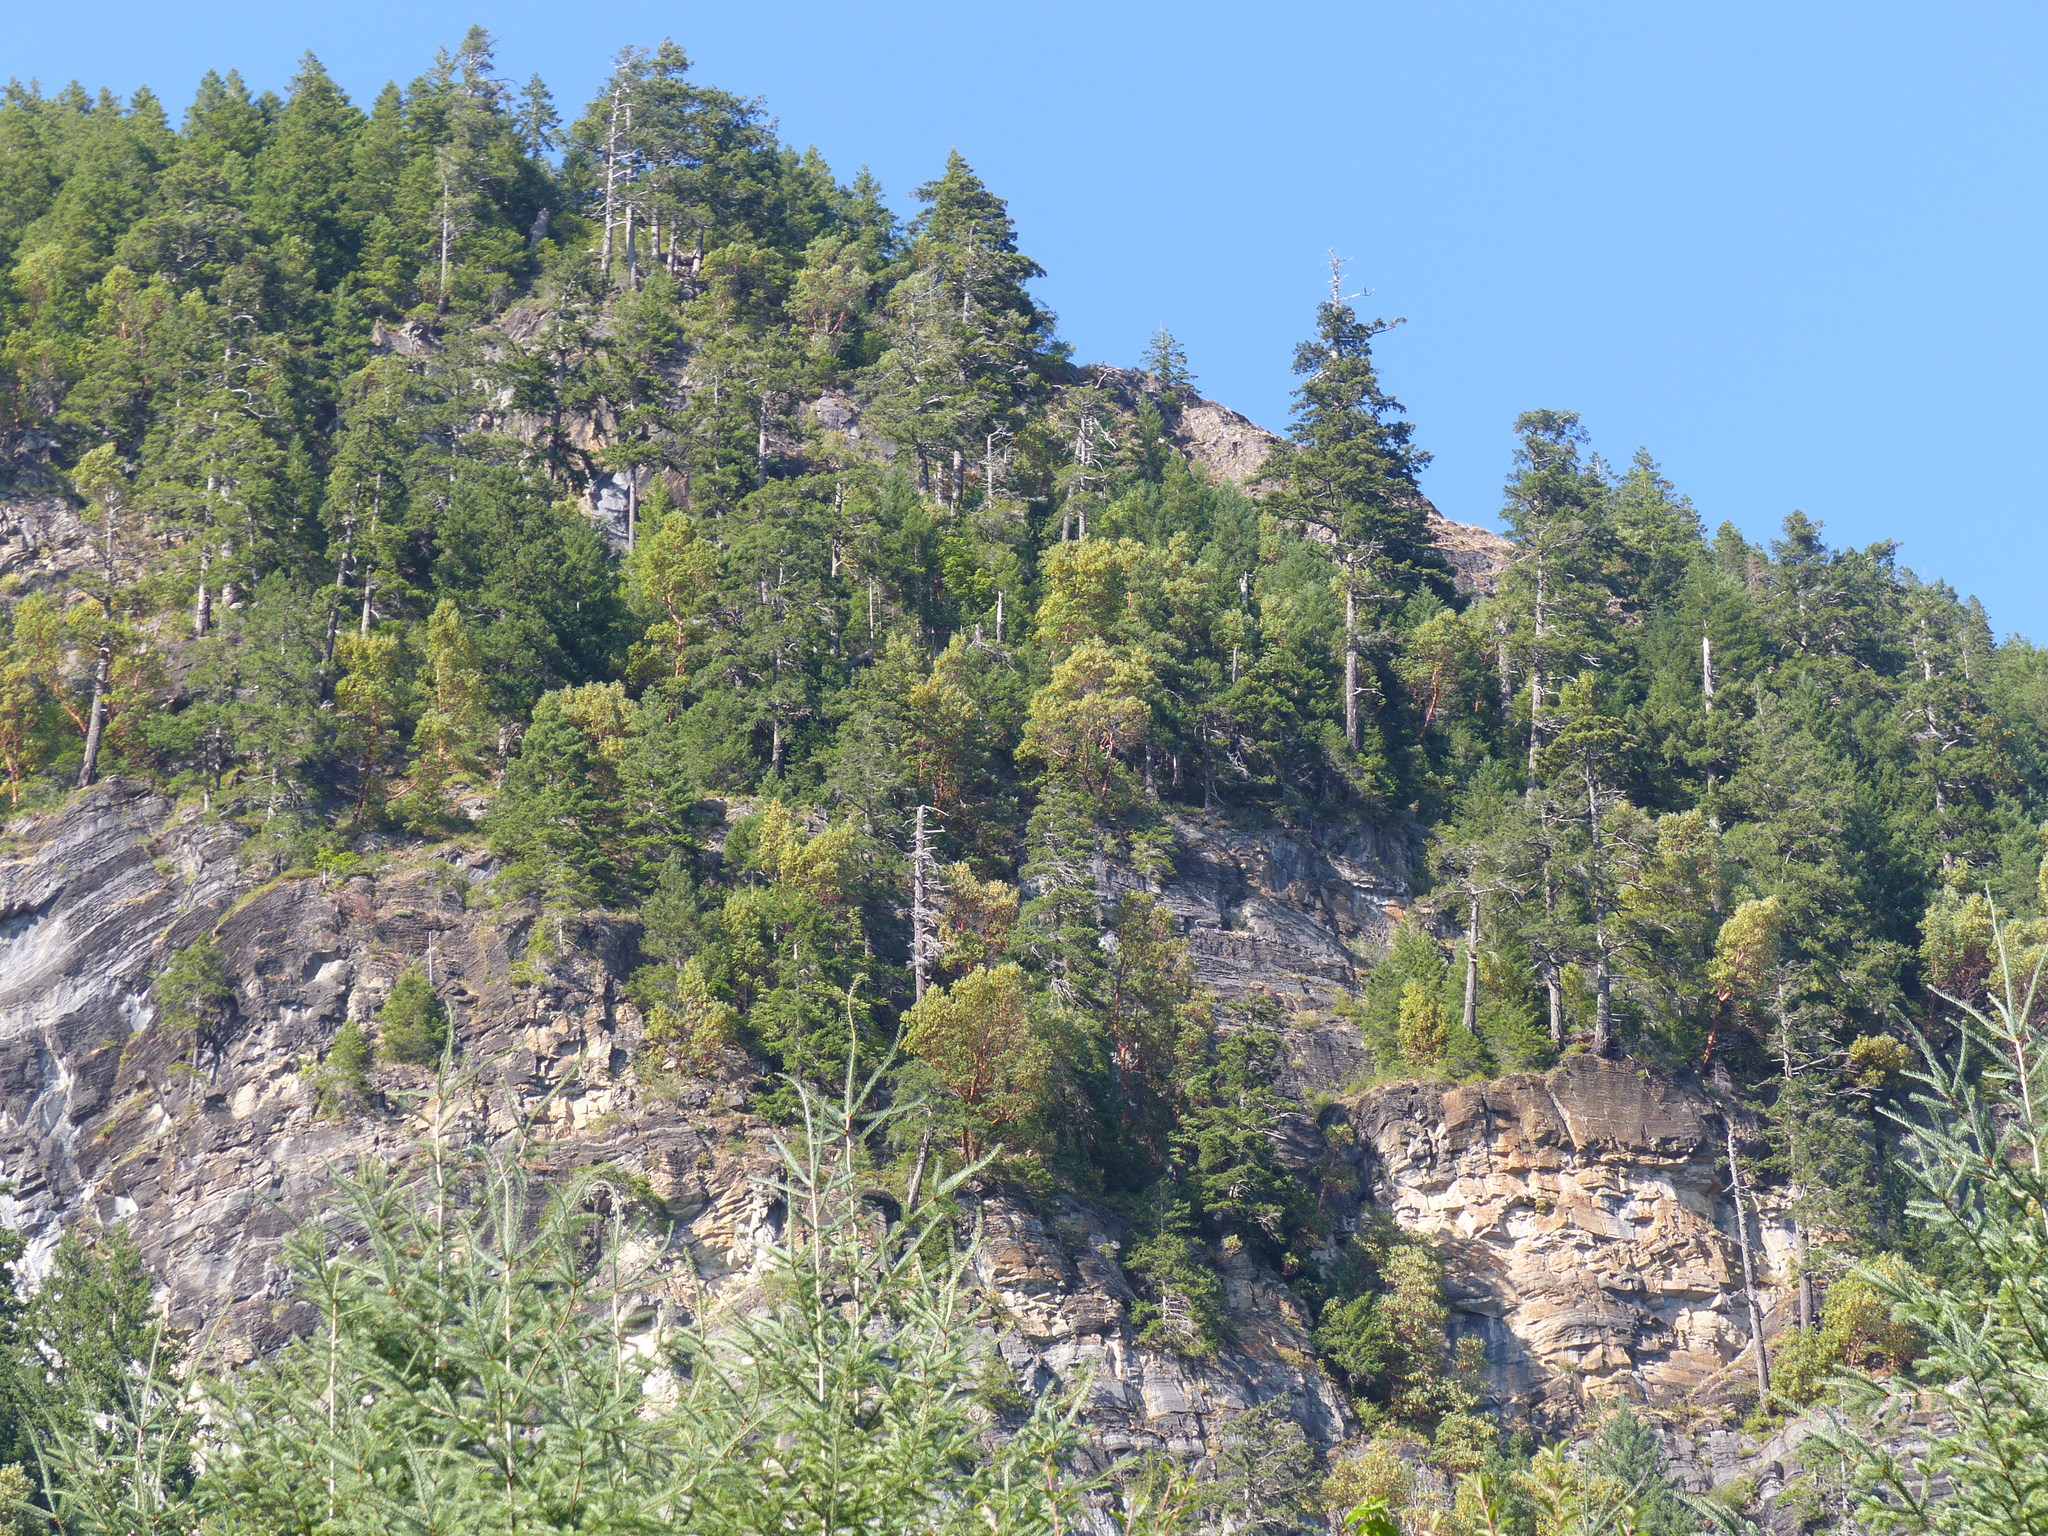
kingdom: Plantae
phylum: Tracheophyta
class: Magnoliopsida
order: Ericales
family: Ericaceae
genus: Arbutus
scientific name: Arbutus menziesii
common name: Pacific madrone
